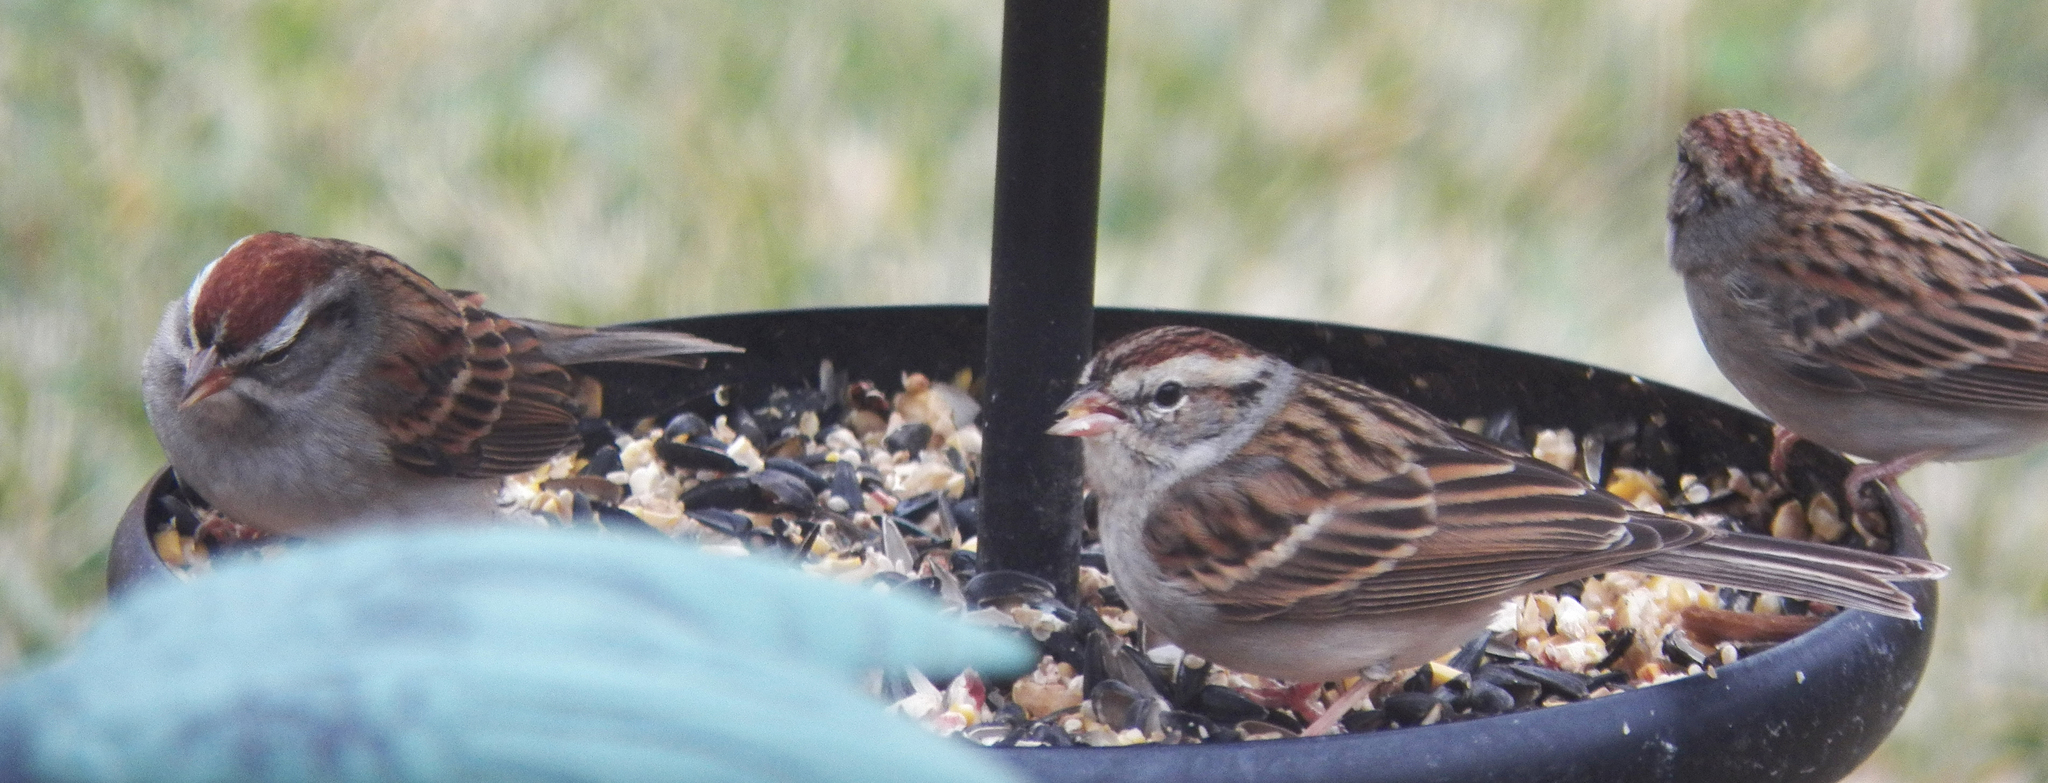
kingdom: Animalia
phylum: Chordata
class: Aves
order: Passeriformes
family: Passerellidae
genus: Spizella
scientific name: Spizella passerina
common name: Chipping sparrow
